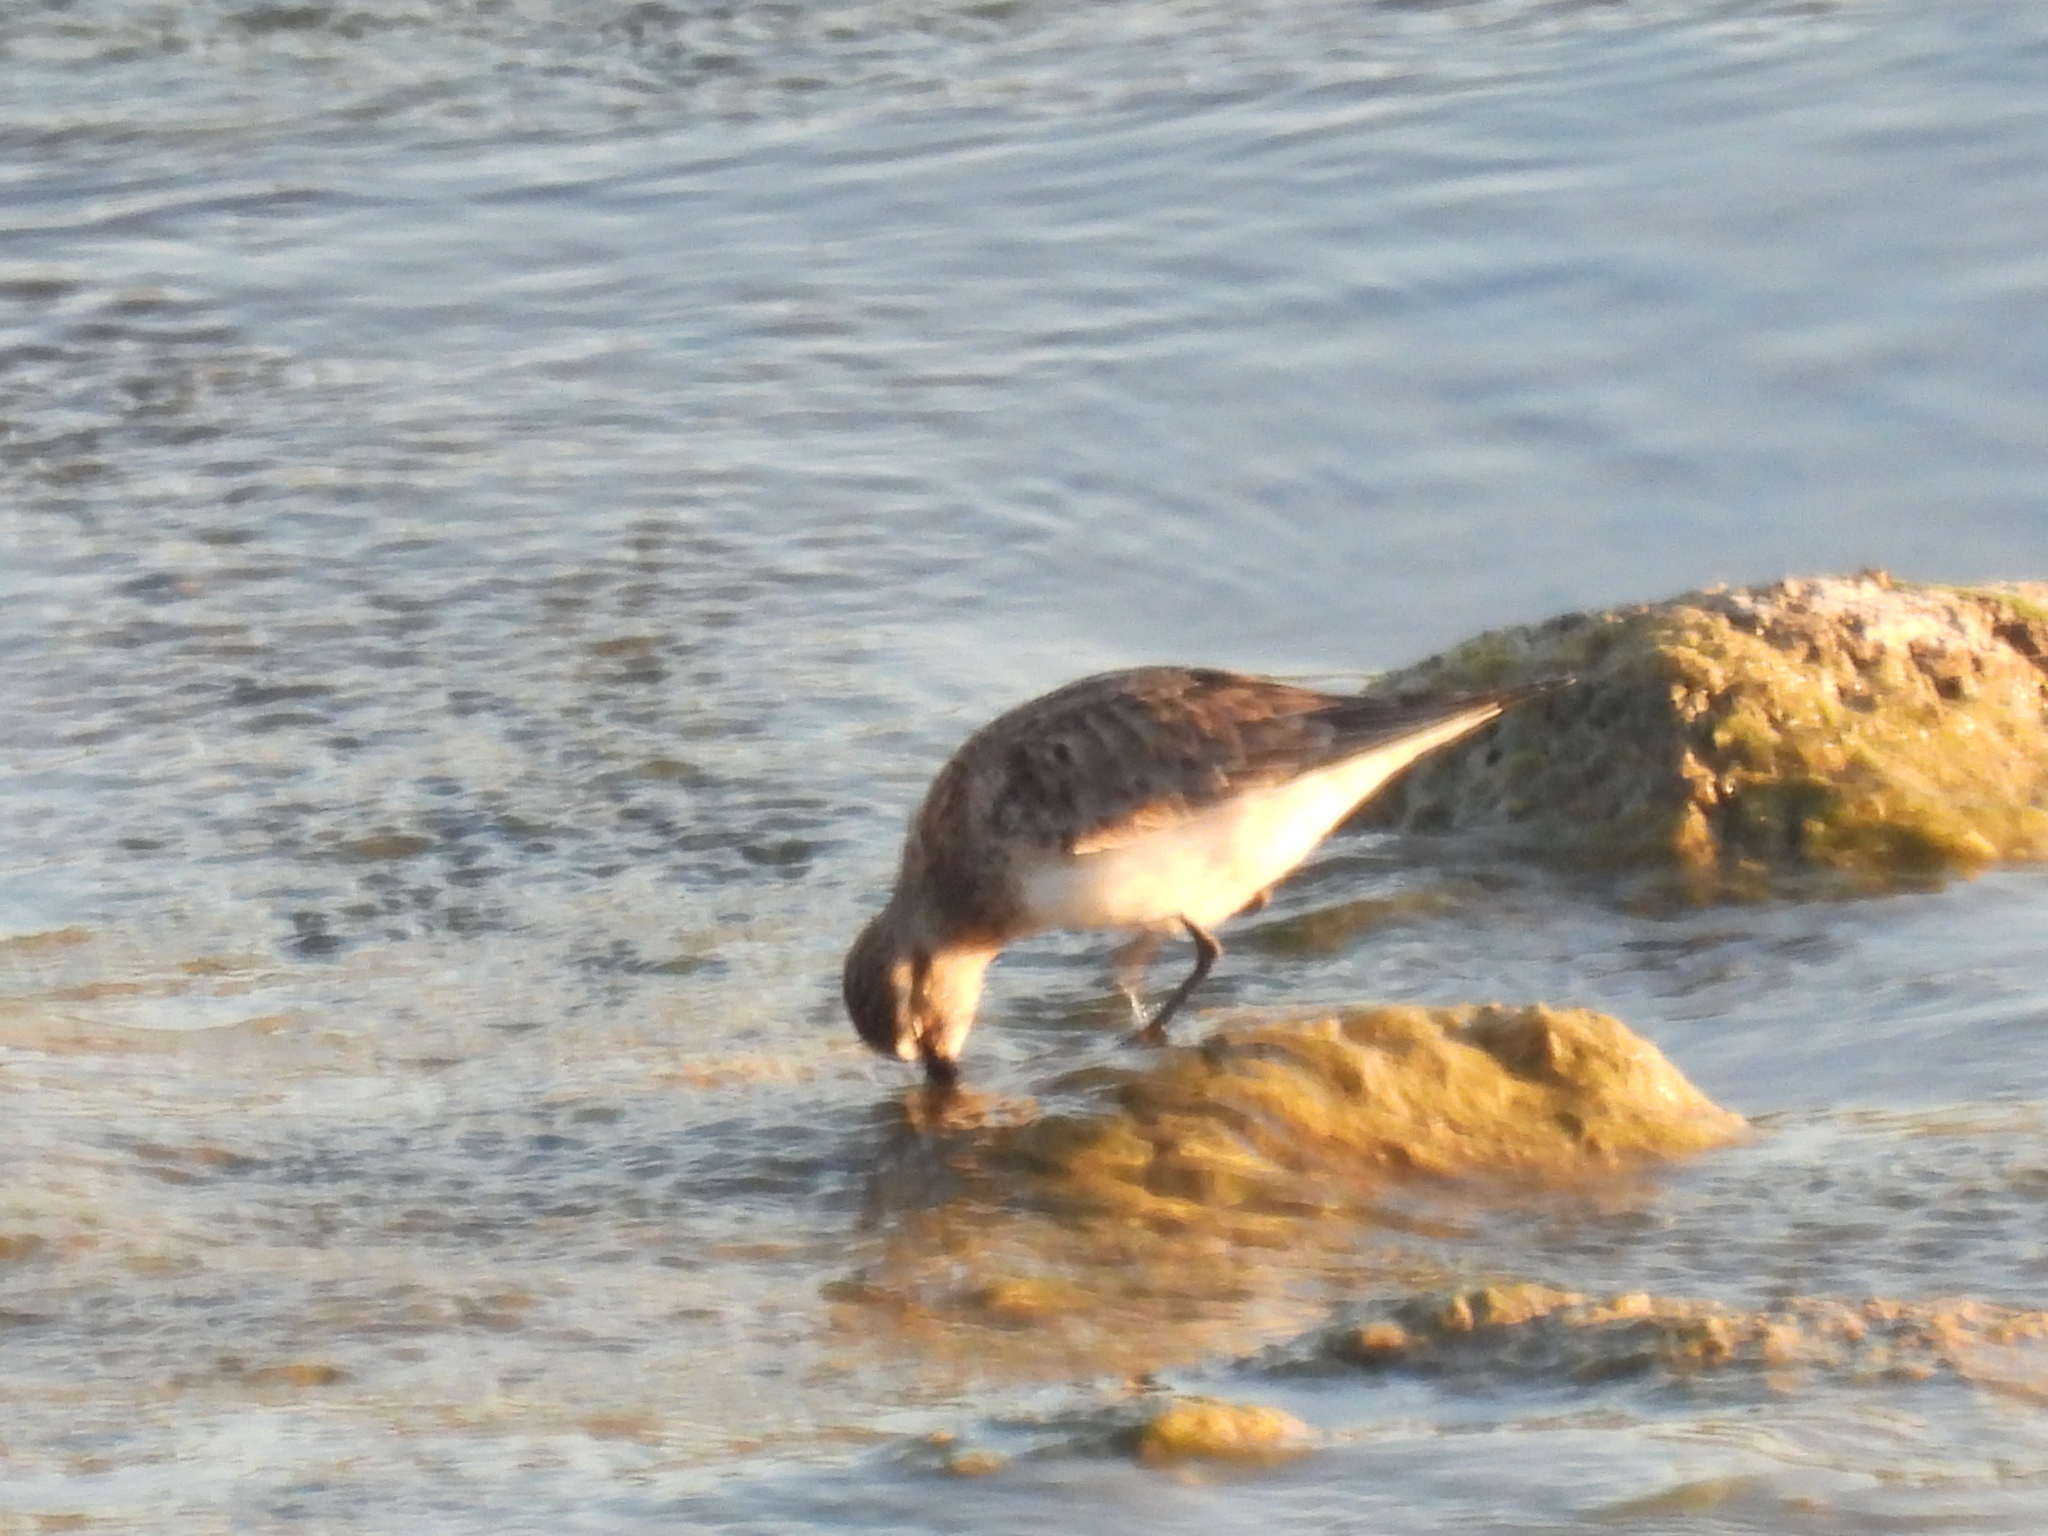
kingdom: Animalia
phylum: Chordata
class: Aves
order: Charadriiformes
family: Scolopacidae
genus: Calidris
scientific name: Calidris bairdii
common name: Baird's sandpiper
